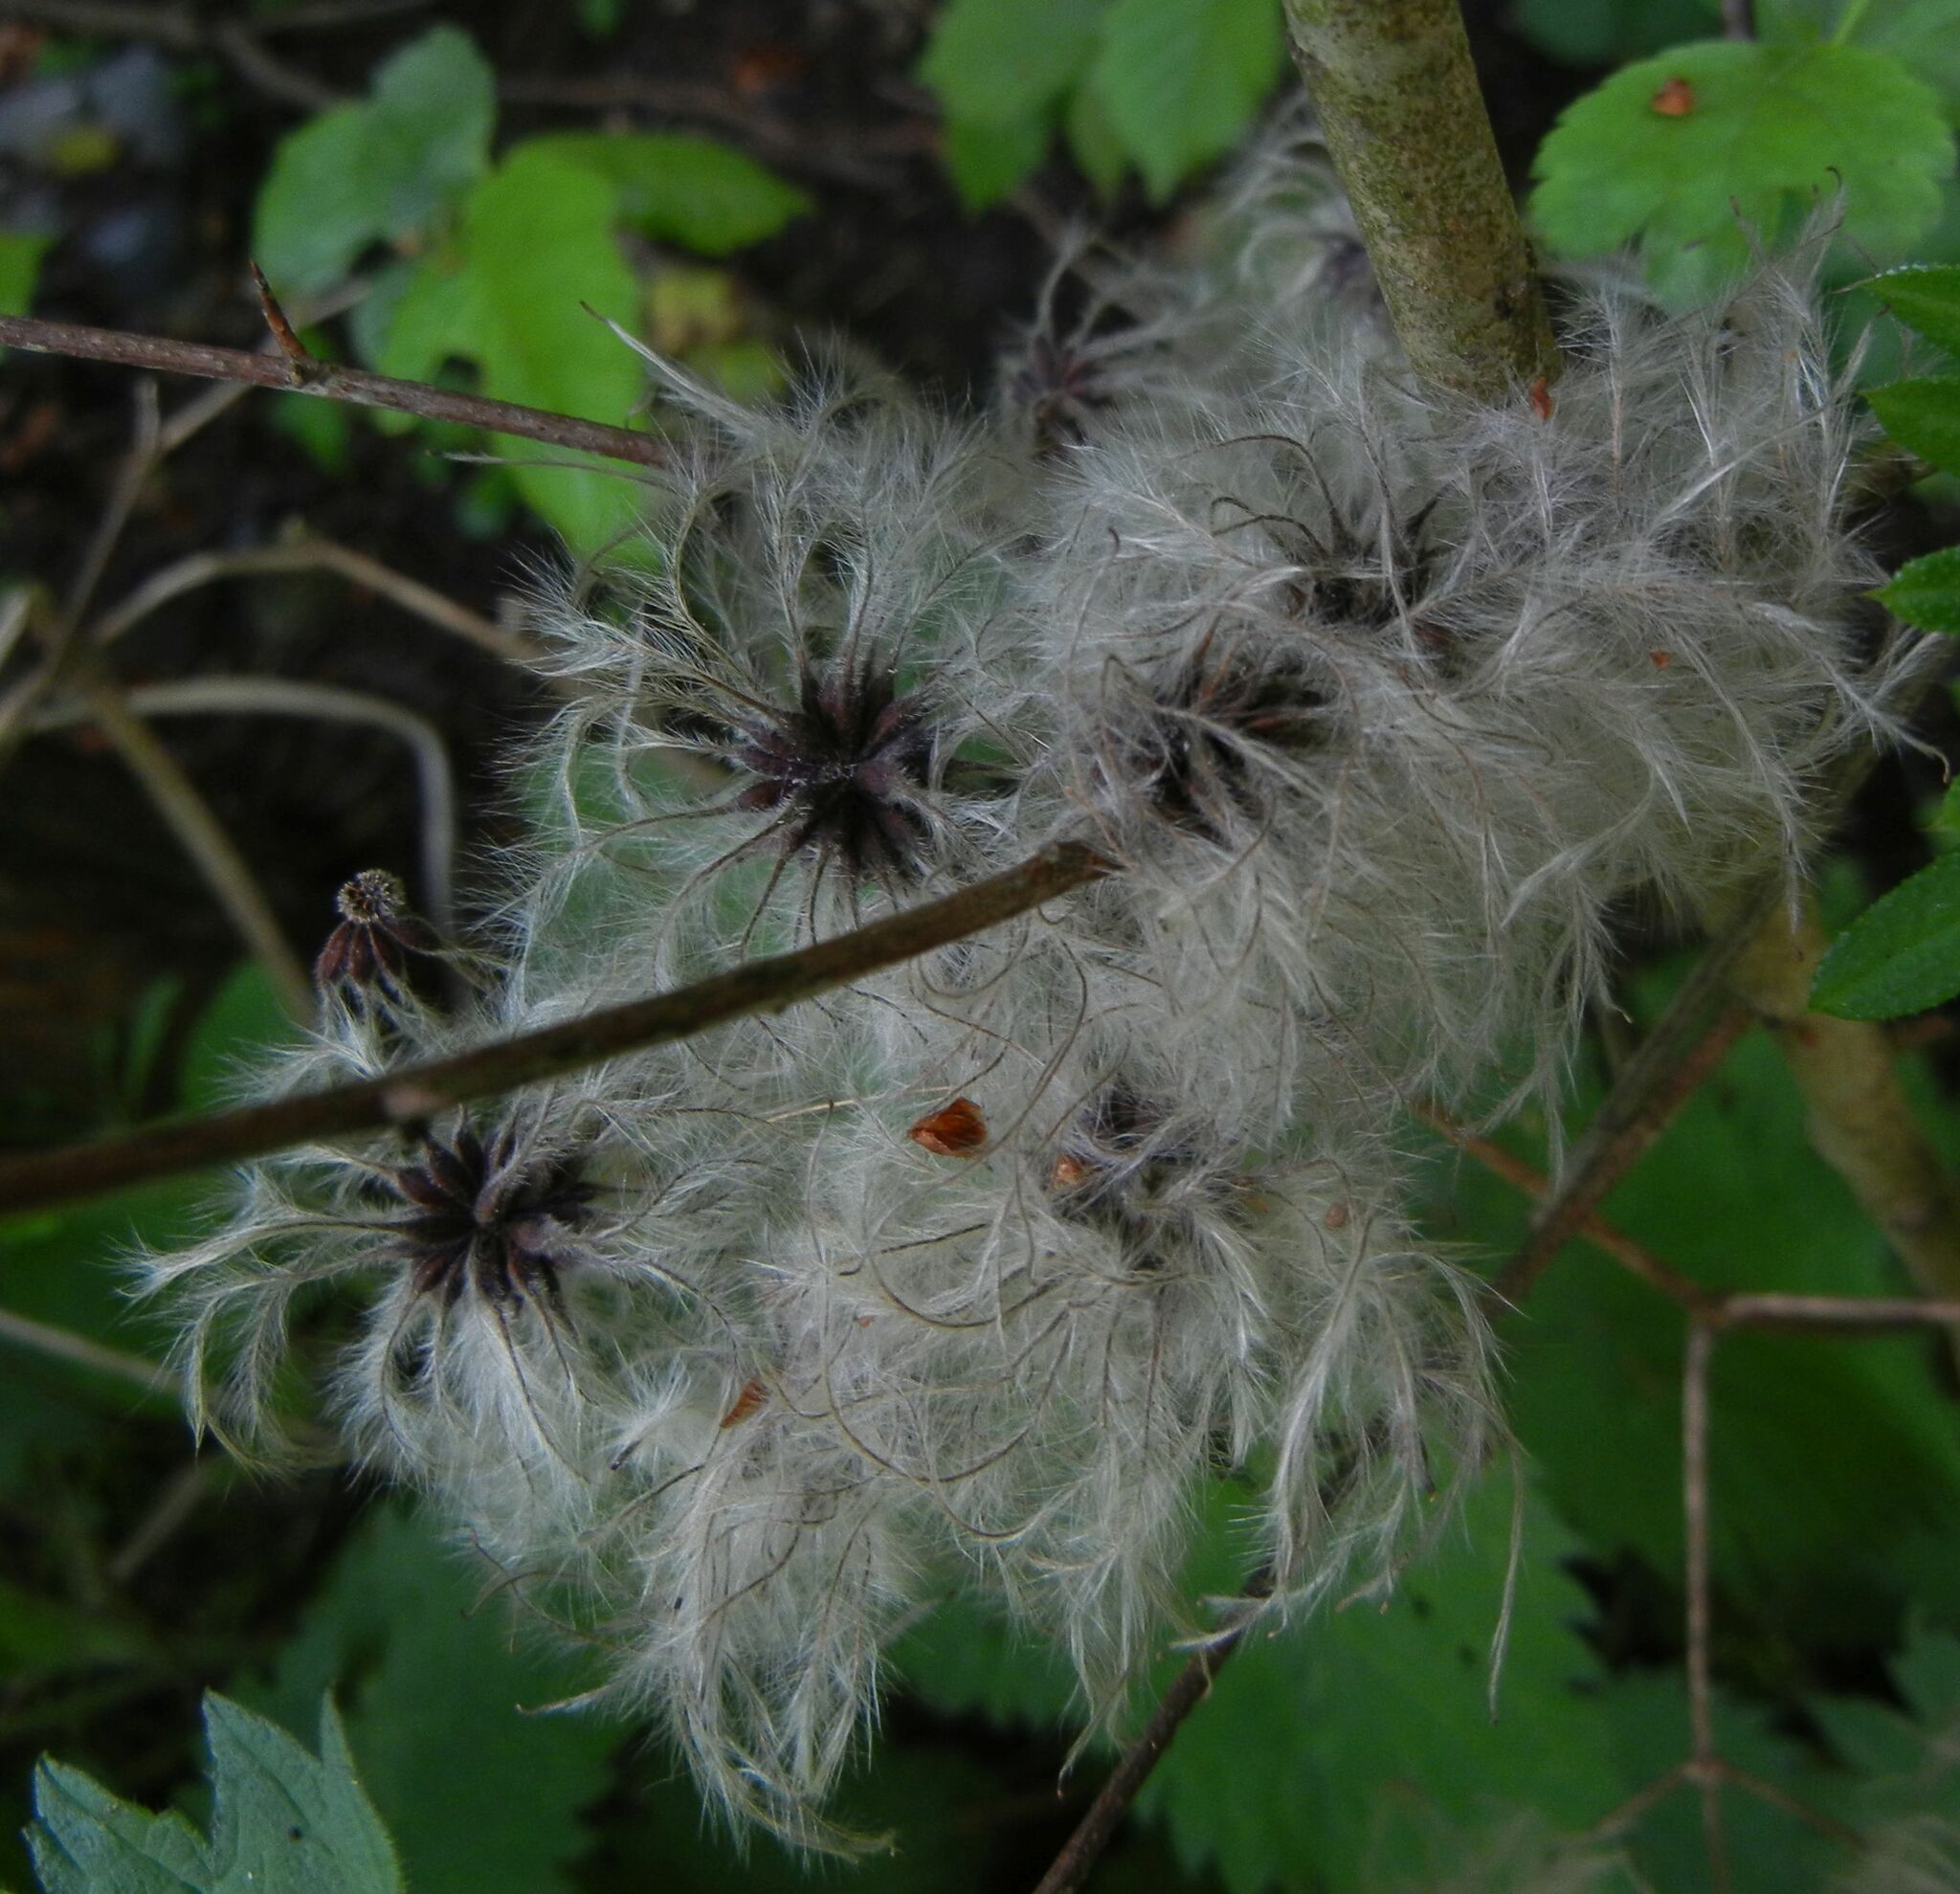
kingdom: Plantae
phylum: Tracheophyta
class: Magnoliopsida
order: Ranunculales
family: Ranunculaceae
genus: Clematis
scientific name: Clematis vitalba
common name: Evergreen clematis
